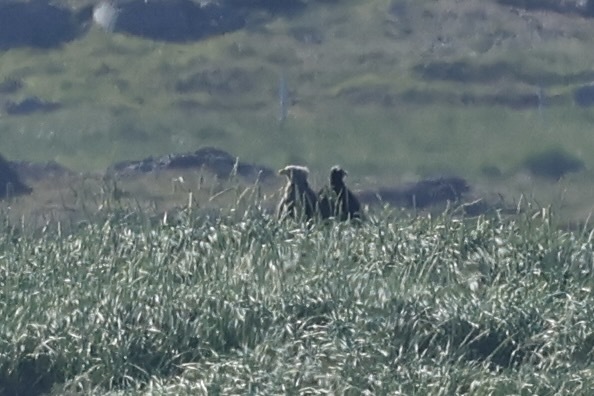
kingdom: Animalia
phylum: Chordata
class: Aves
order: Accipitriformes
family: Accipitridae
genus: Haliaeetus
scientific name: Haliaeetus albicilla
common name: White-tailed eagle
